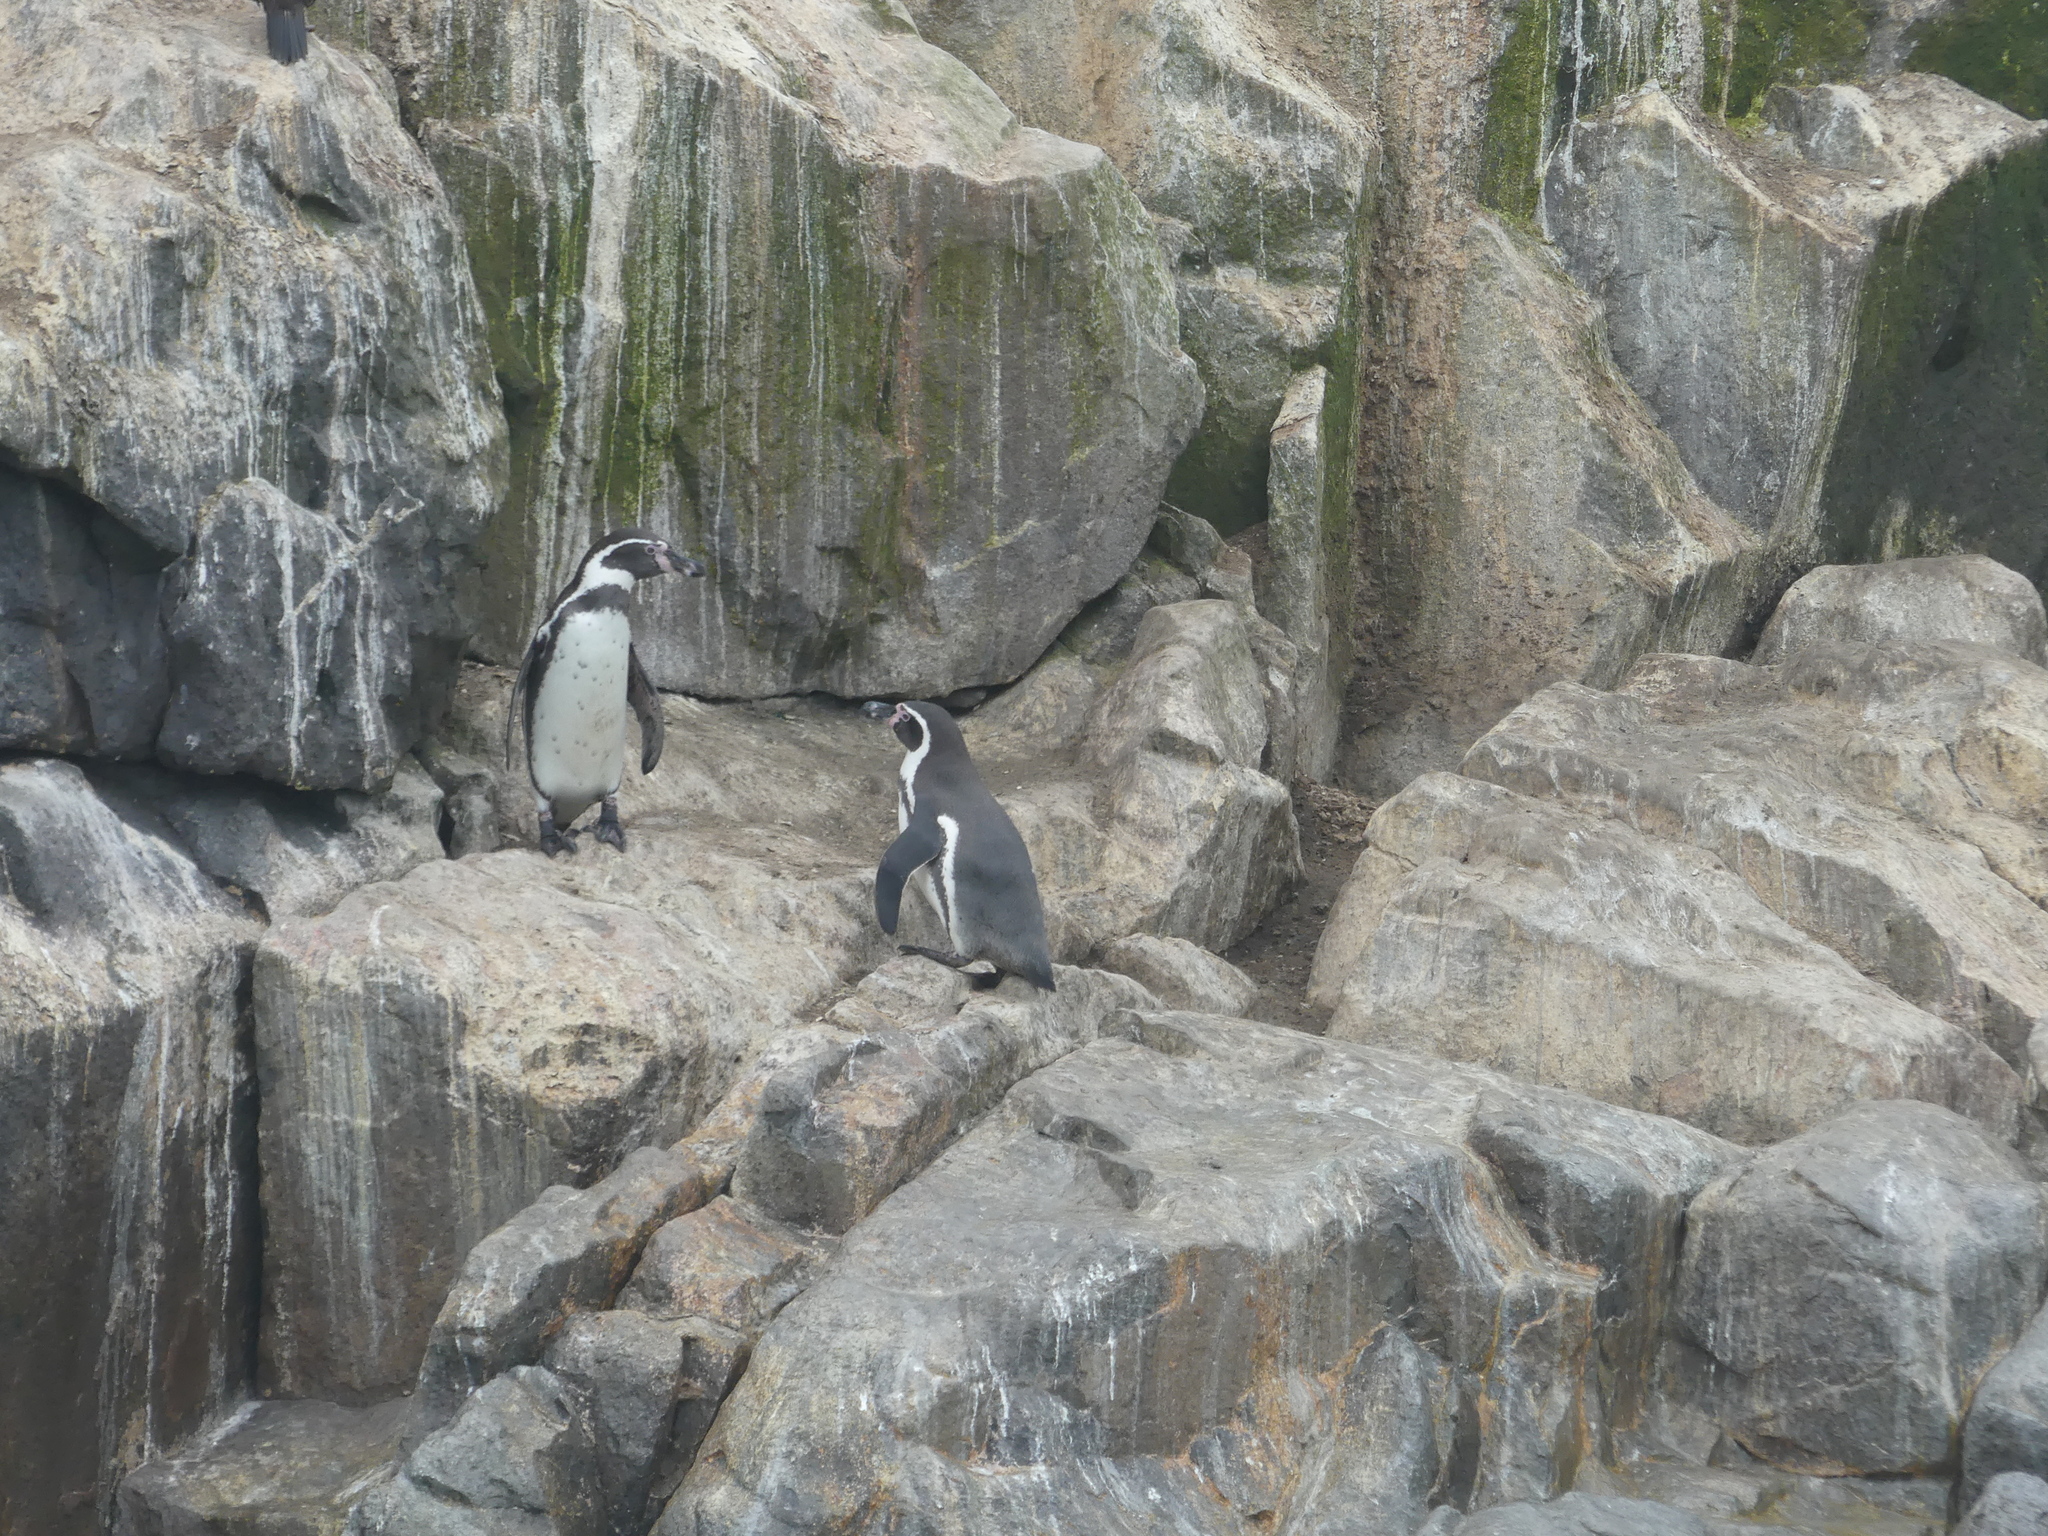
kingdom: Animalia
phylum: Chordata
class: Aves
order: Sphenisciformes
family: Spheniscidae
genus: Spheniscus
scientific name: Spheniscus humboldti
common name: Humboldt penguin
